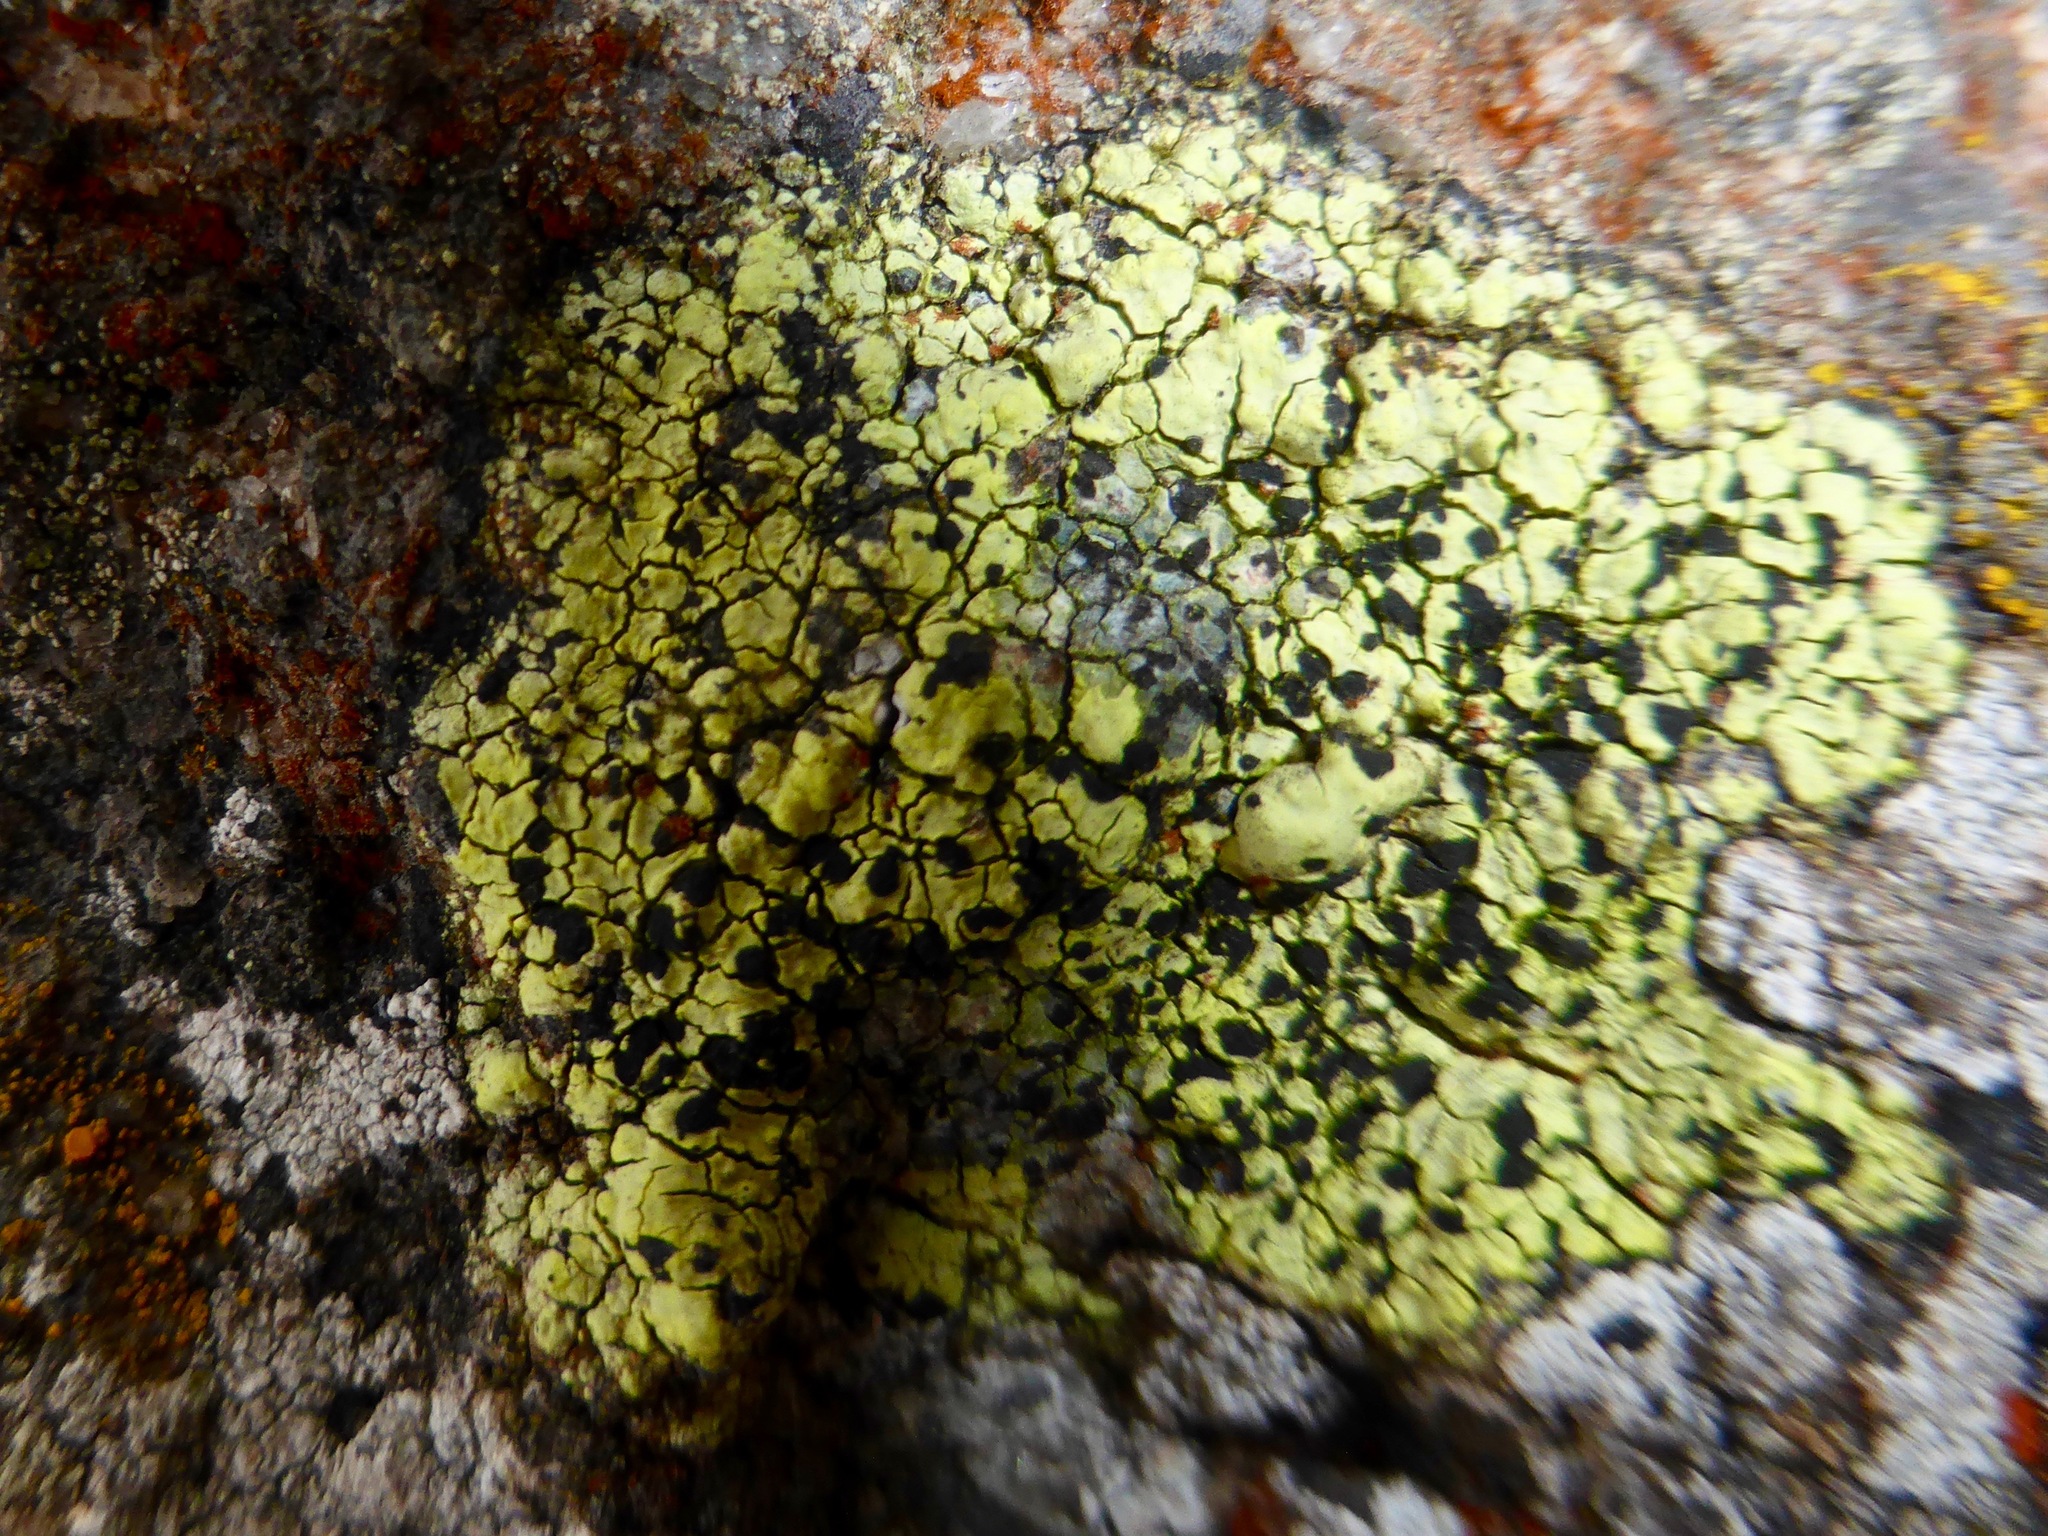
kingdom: Fungi
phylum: Ascomycota
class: Lecanoromycetes
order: Rhizocarpales
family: Rhizocarpaceae
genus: Rhizocarpon
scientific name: Rhizocarpon geographicum
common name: Yellow map lichen
